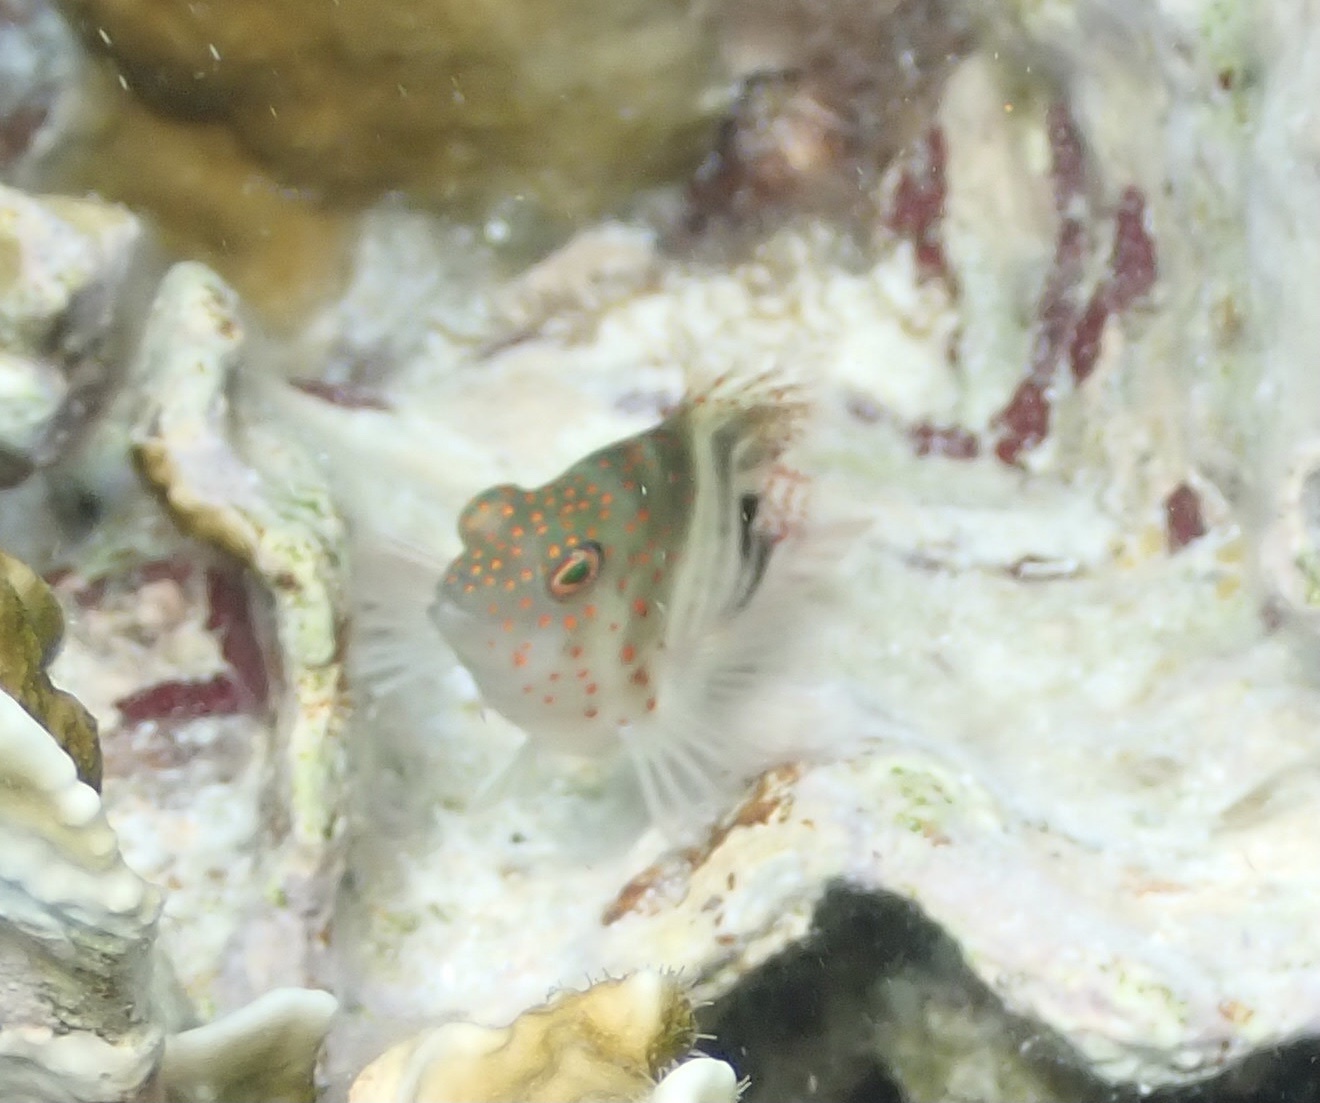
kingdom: Animalia
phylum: Chordata
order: Perciformes
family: Cirrhitidae
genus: Amblycirrhitus
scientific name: Amblycirrhitus pinos
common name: Redspotted hawkfish
